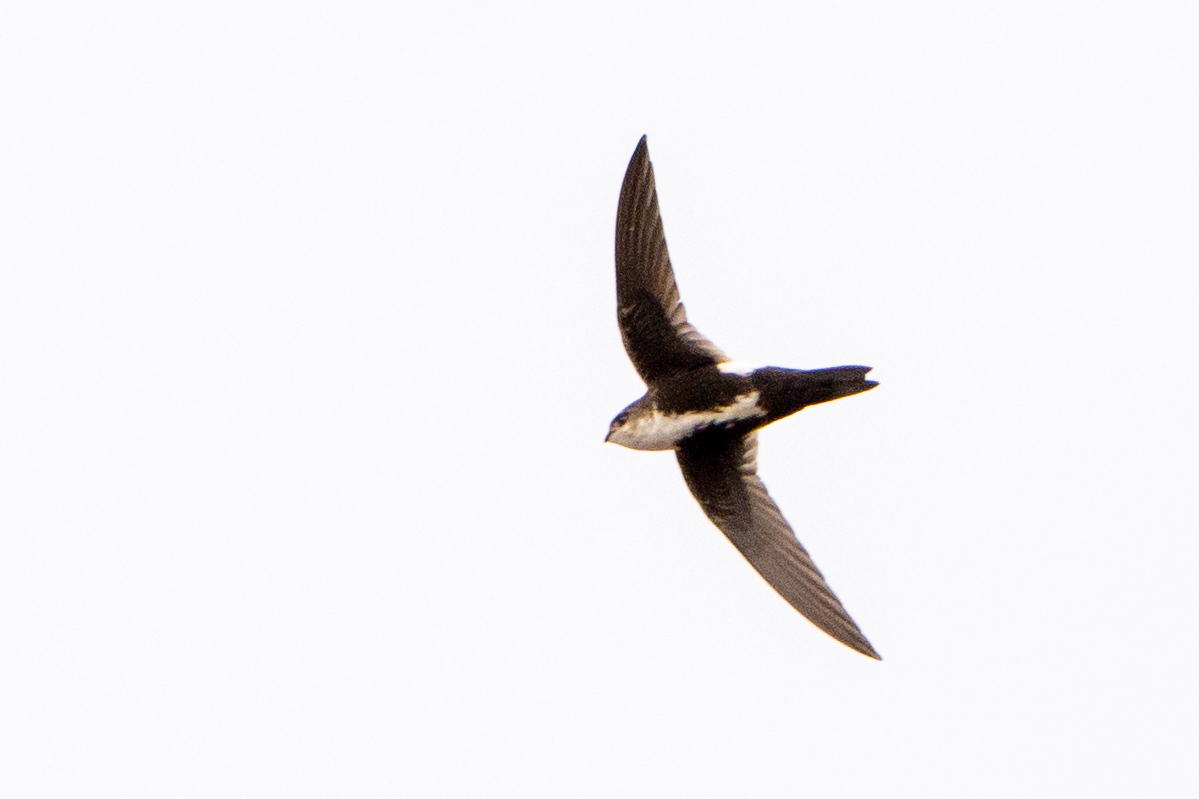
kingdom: Animalia
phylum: Chordata
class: Aves
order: Apodiformes
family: Apodidae
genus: Aeronautes
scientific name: Aeronautes saxatalis
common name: White-throated swift
